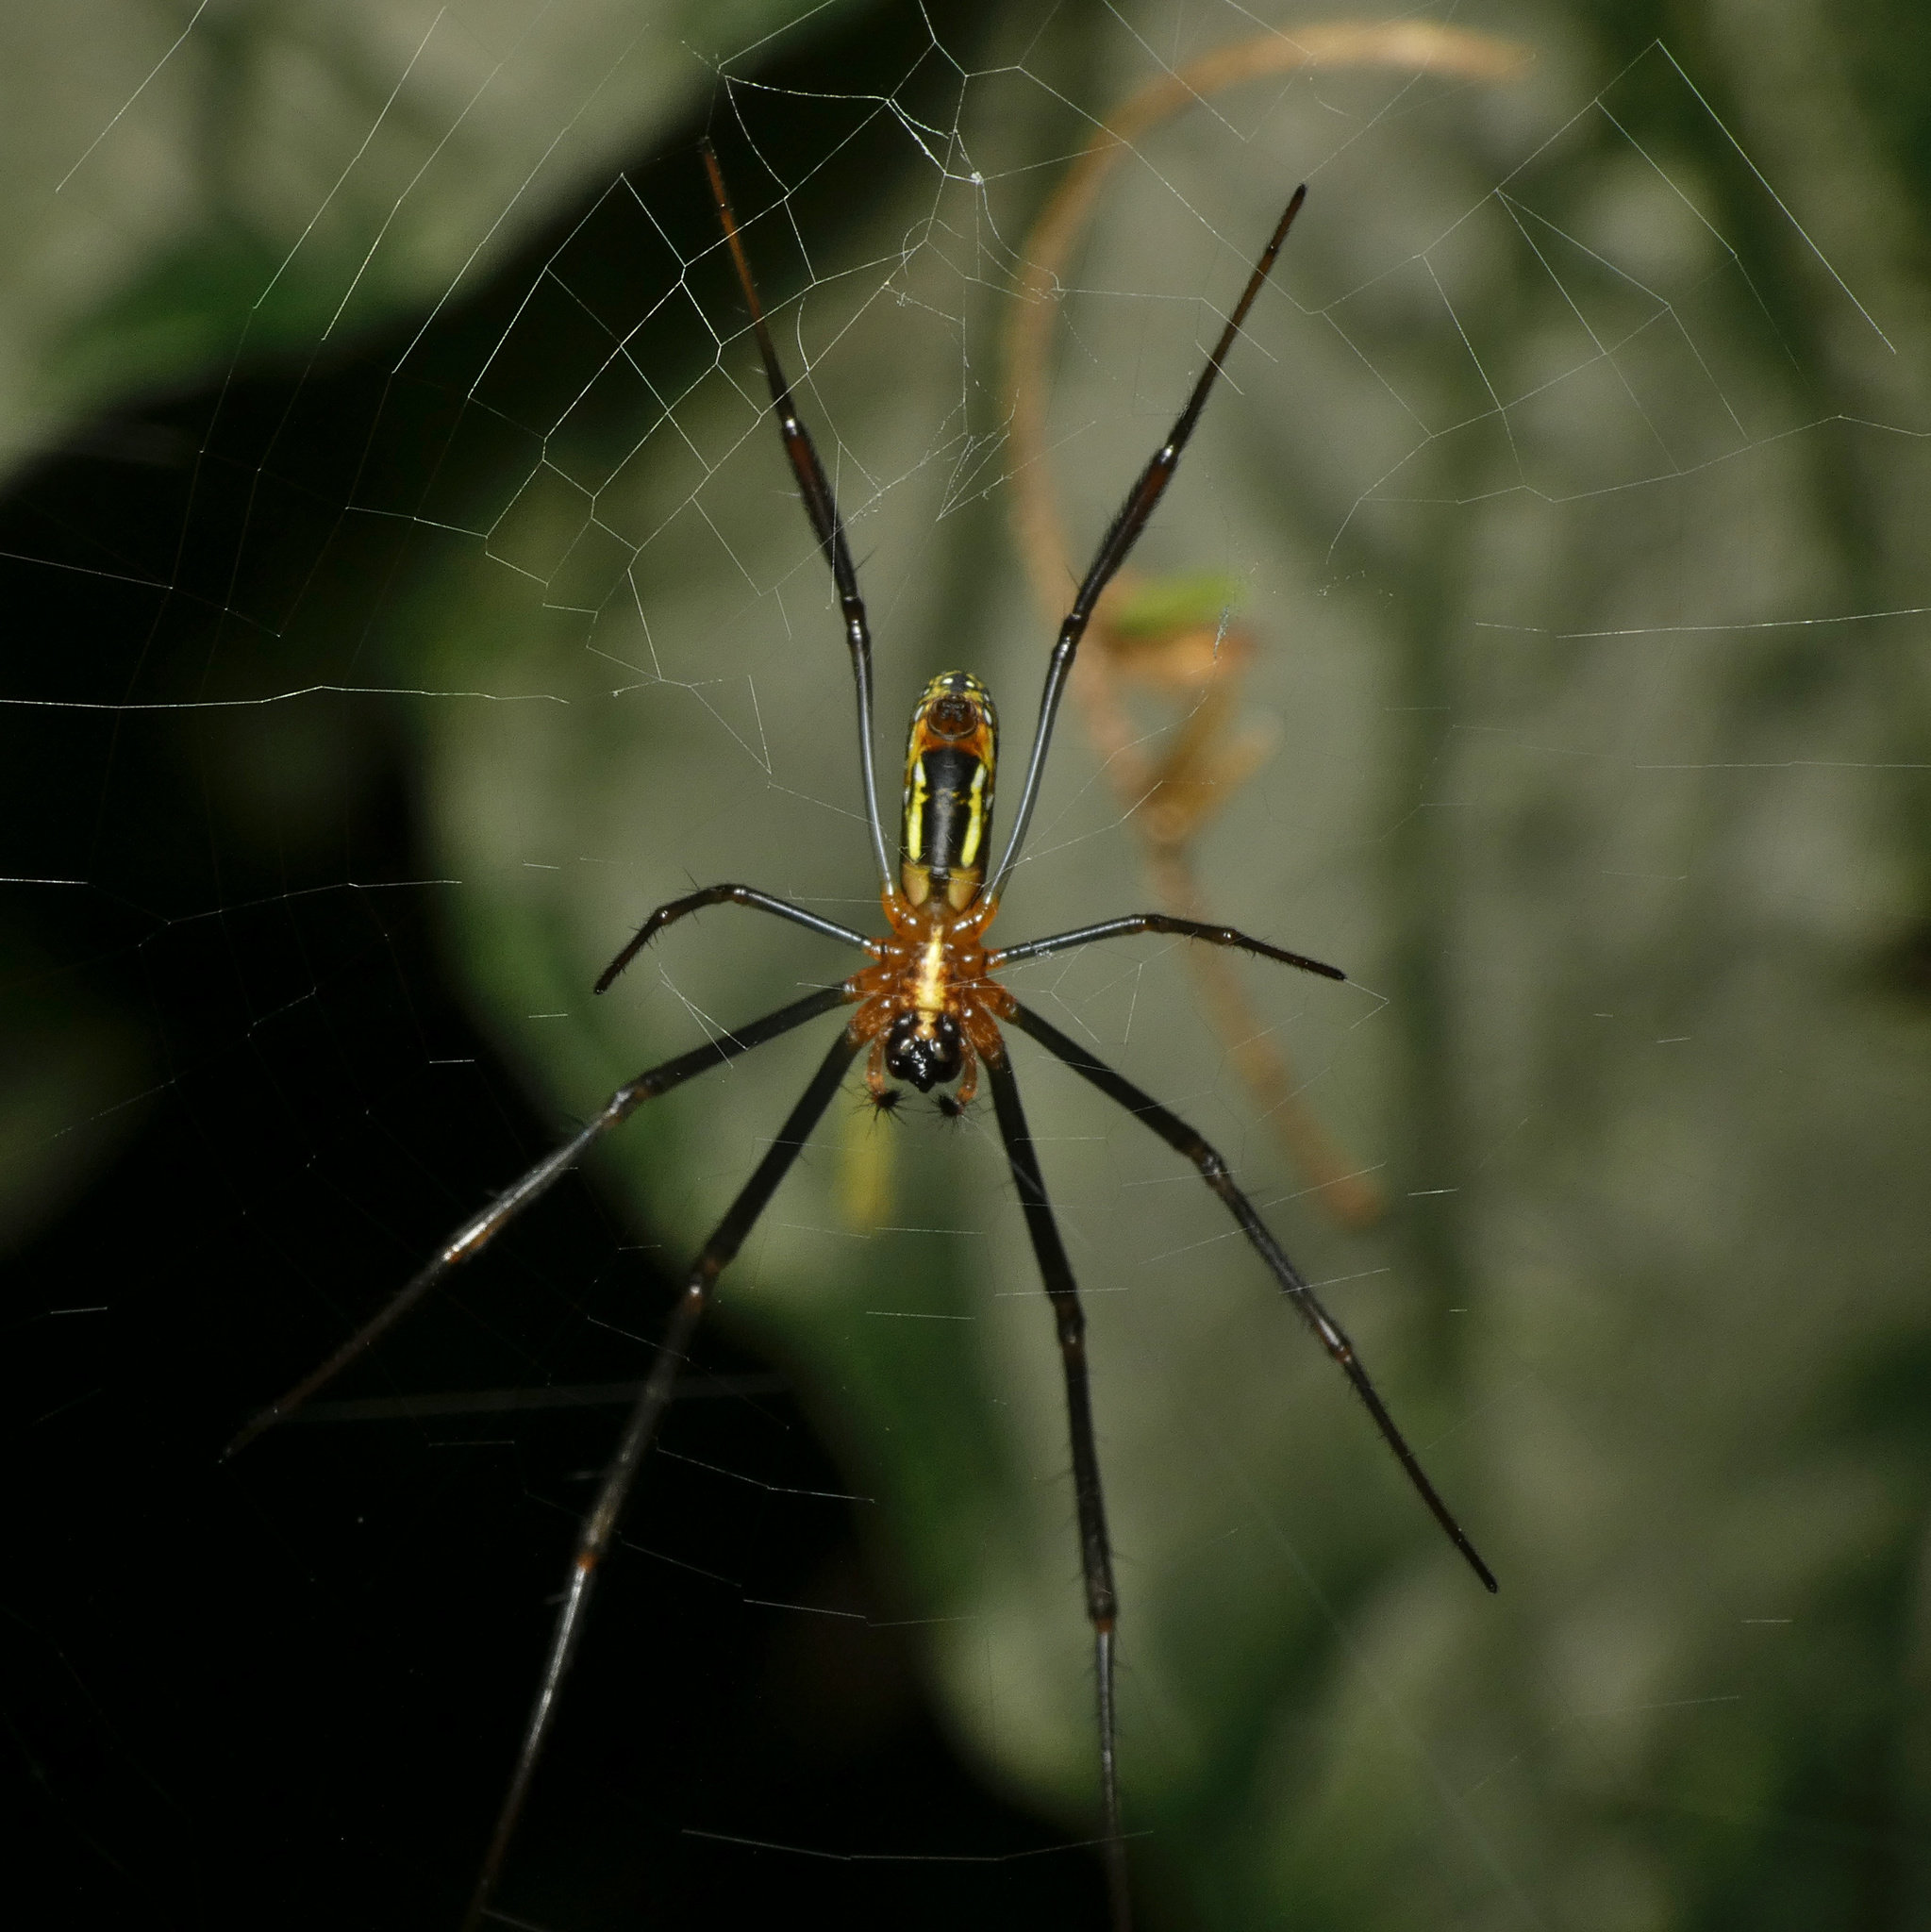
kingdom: Animalia
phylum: Arthropoda
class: Arachnida
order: Araneae
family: Araneidae
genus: Trichonephila
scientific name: Trichonephila fenestrata
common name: Hairy golden orb weaver
